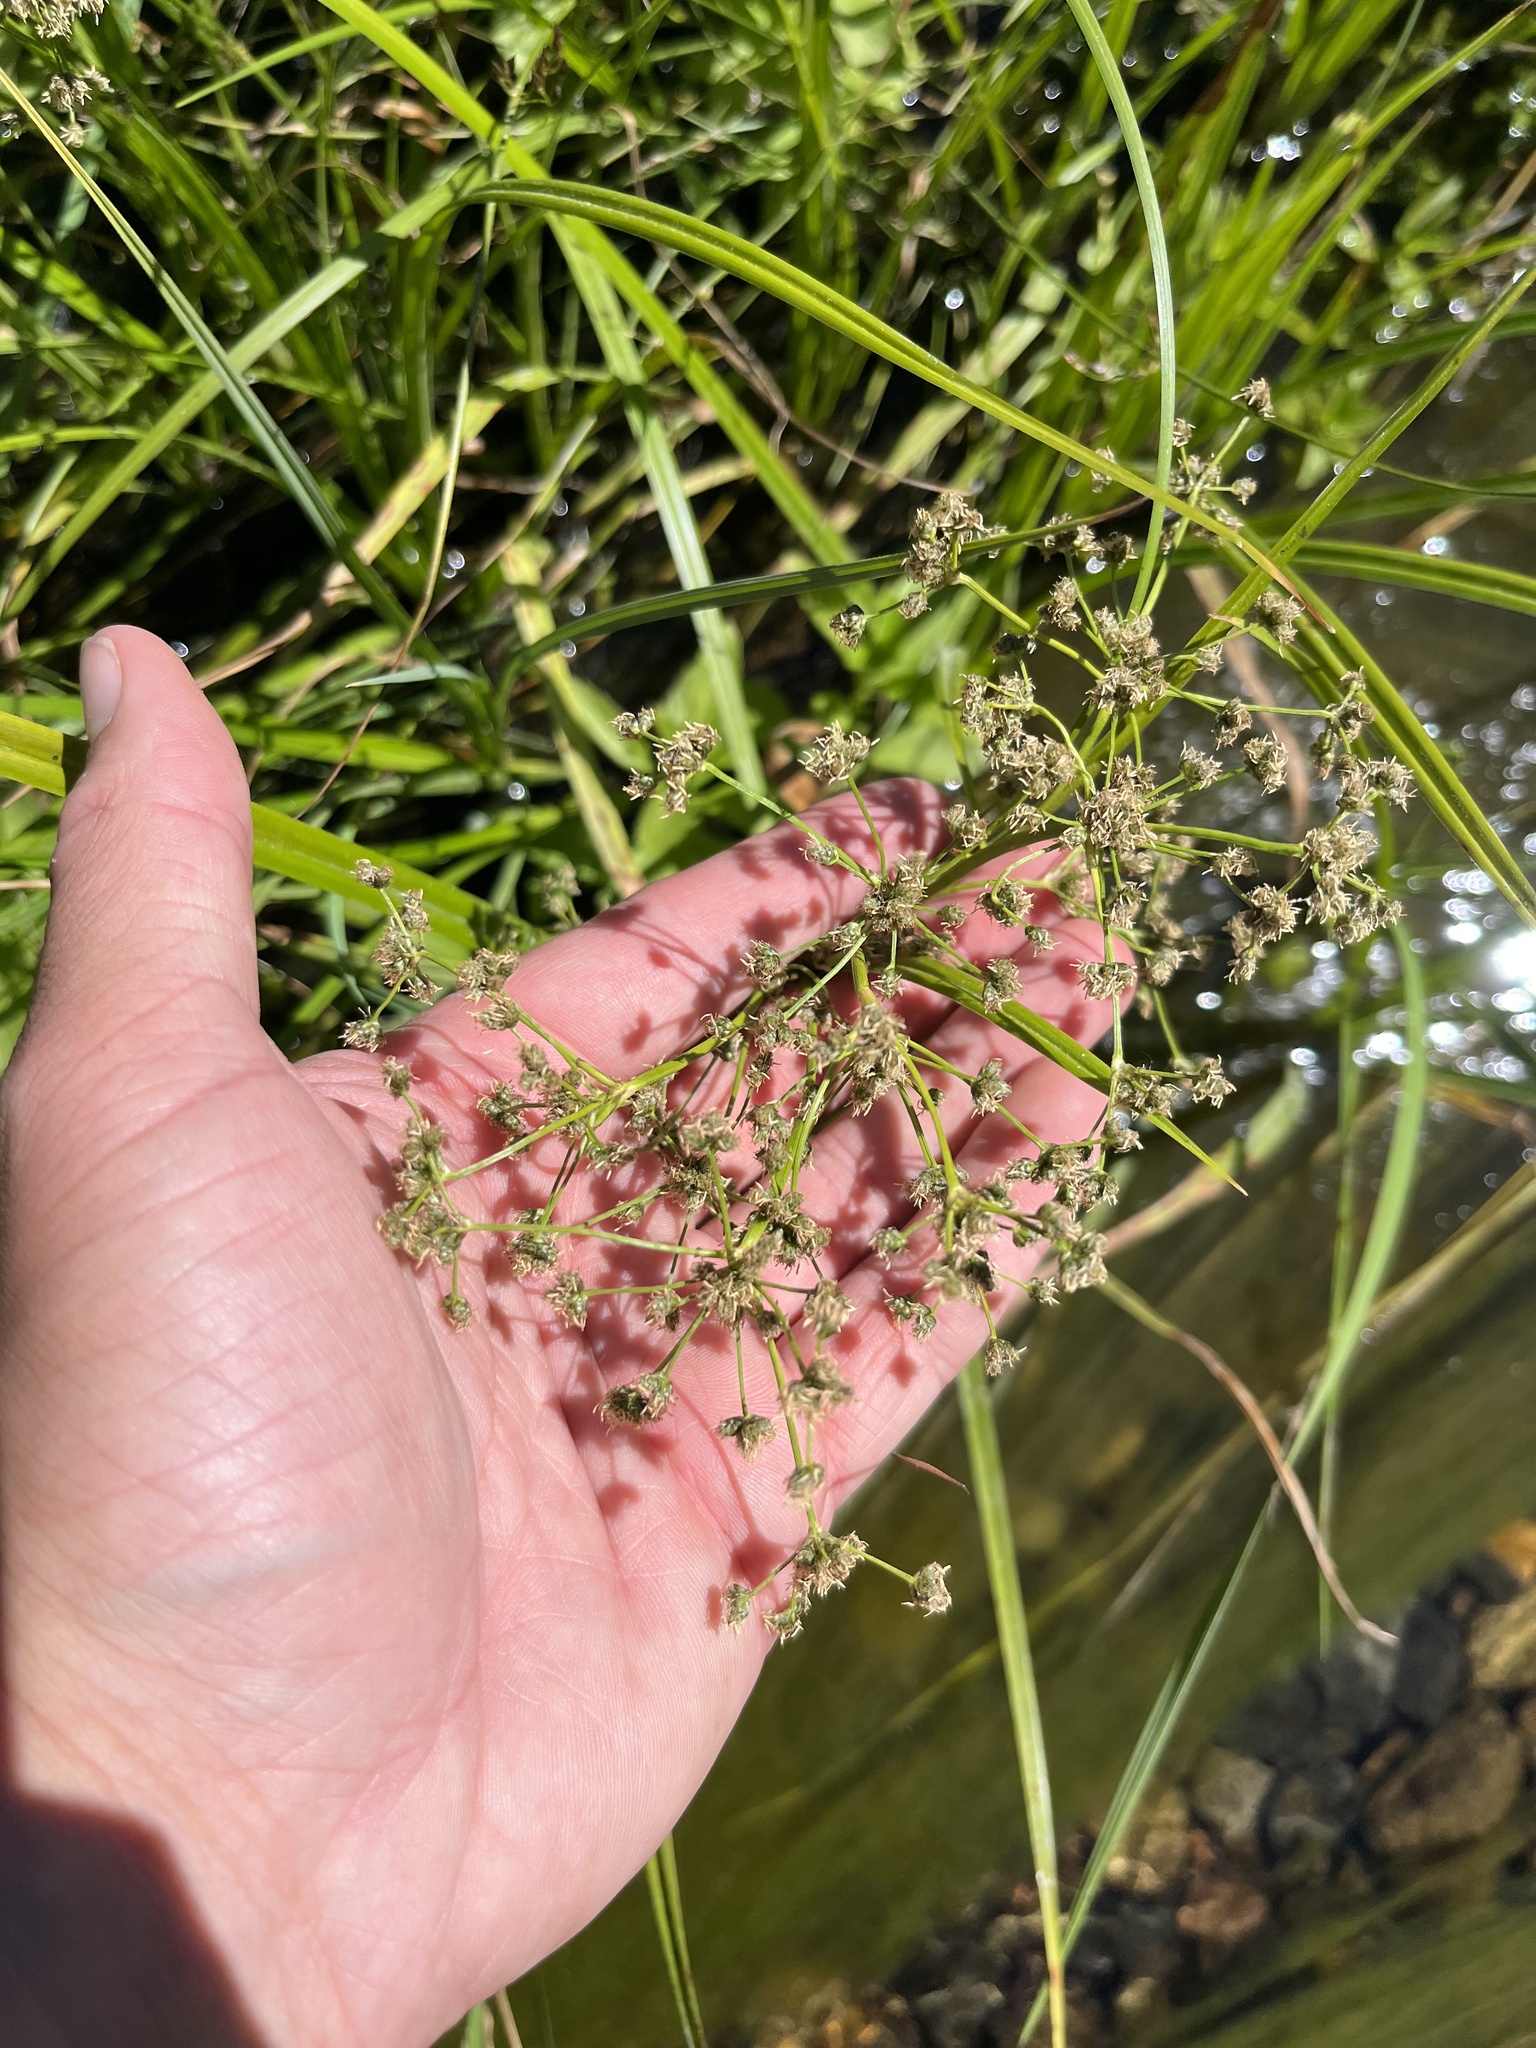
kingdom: Plantae
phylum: Tracheophyta
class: Liliopsida
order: Poales
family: Cyperaceae
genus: Scirpus
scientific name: Scirpus microcarpus
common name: Panicled bulrush
